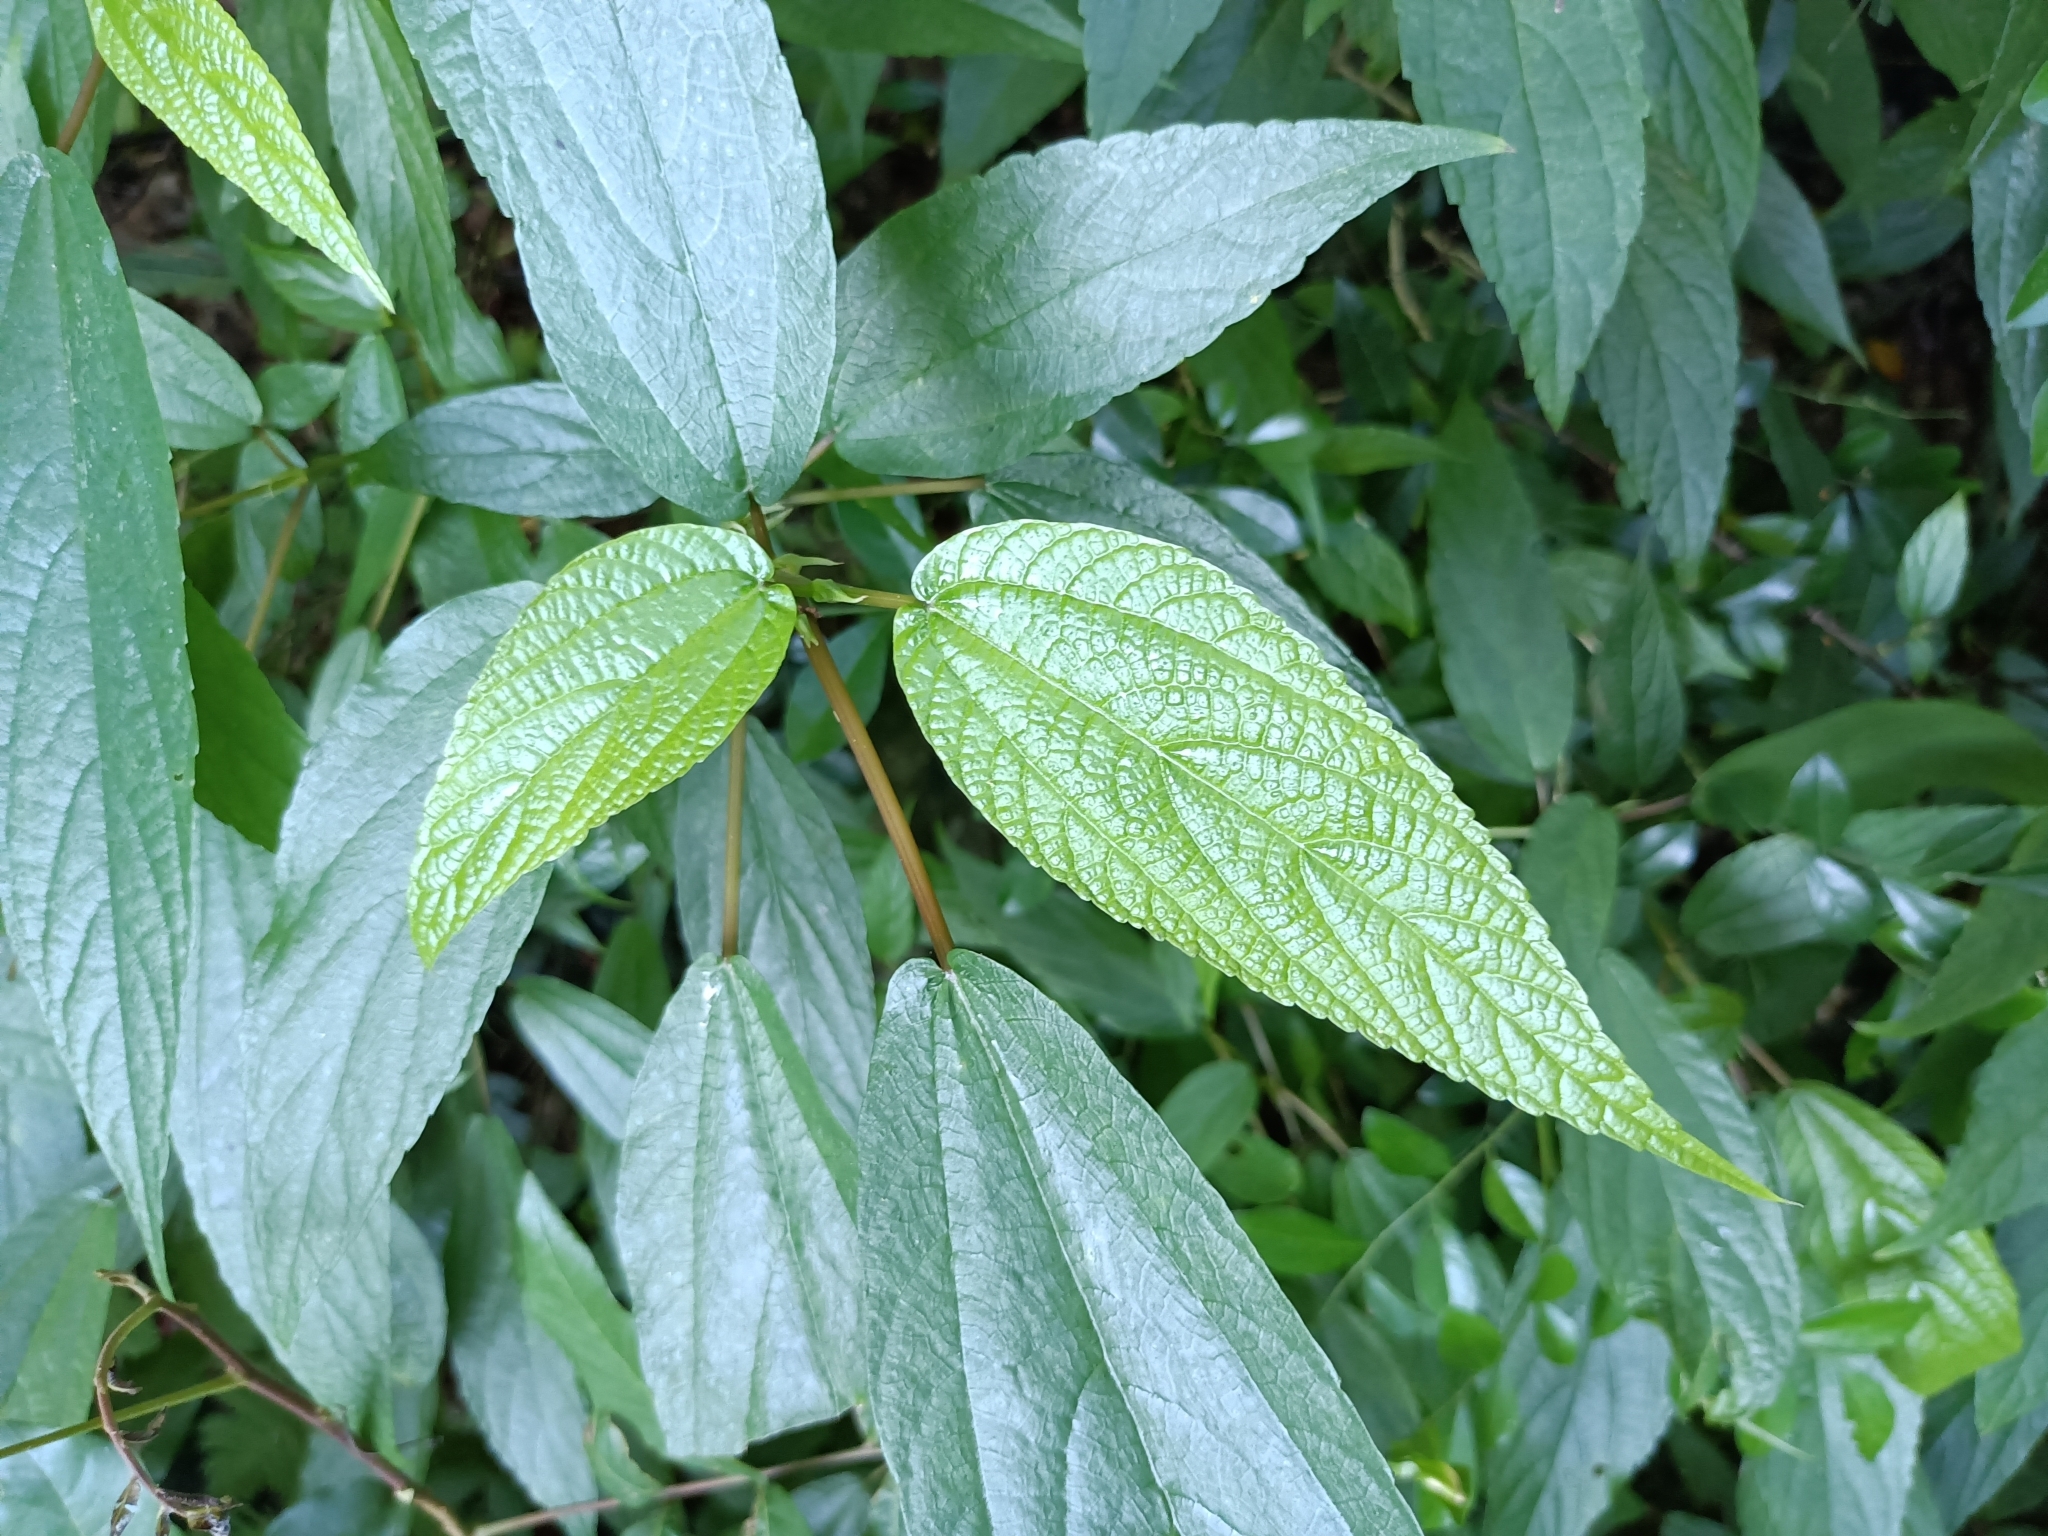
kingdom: Plantae
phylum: Tracheophyta
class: Magnoliopsida
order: Rosales
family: Urticaceae
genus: Boehmeria
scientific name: Boehmeria zollingeriana
